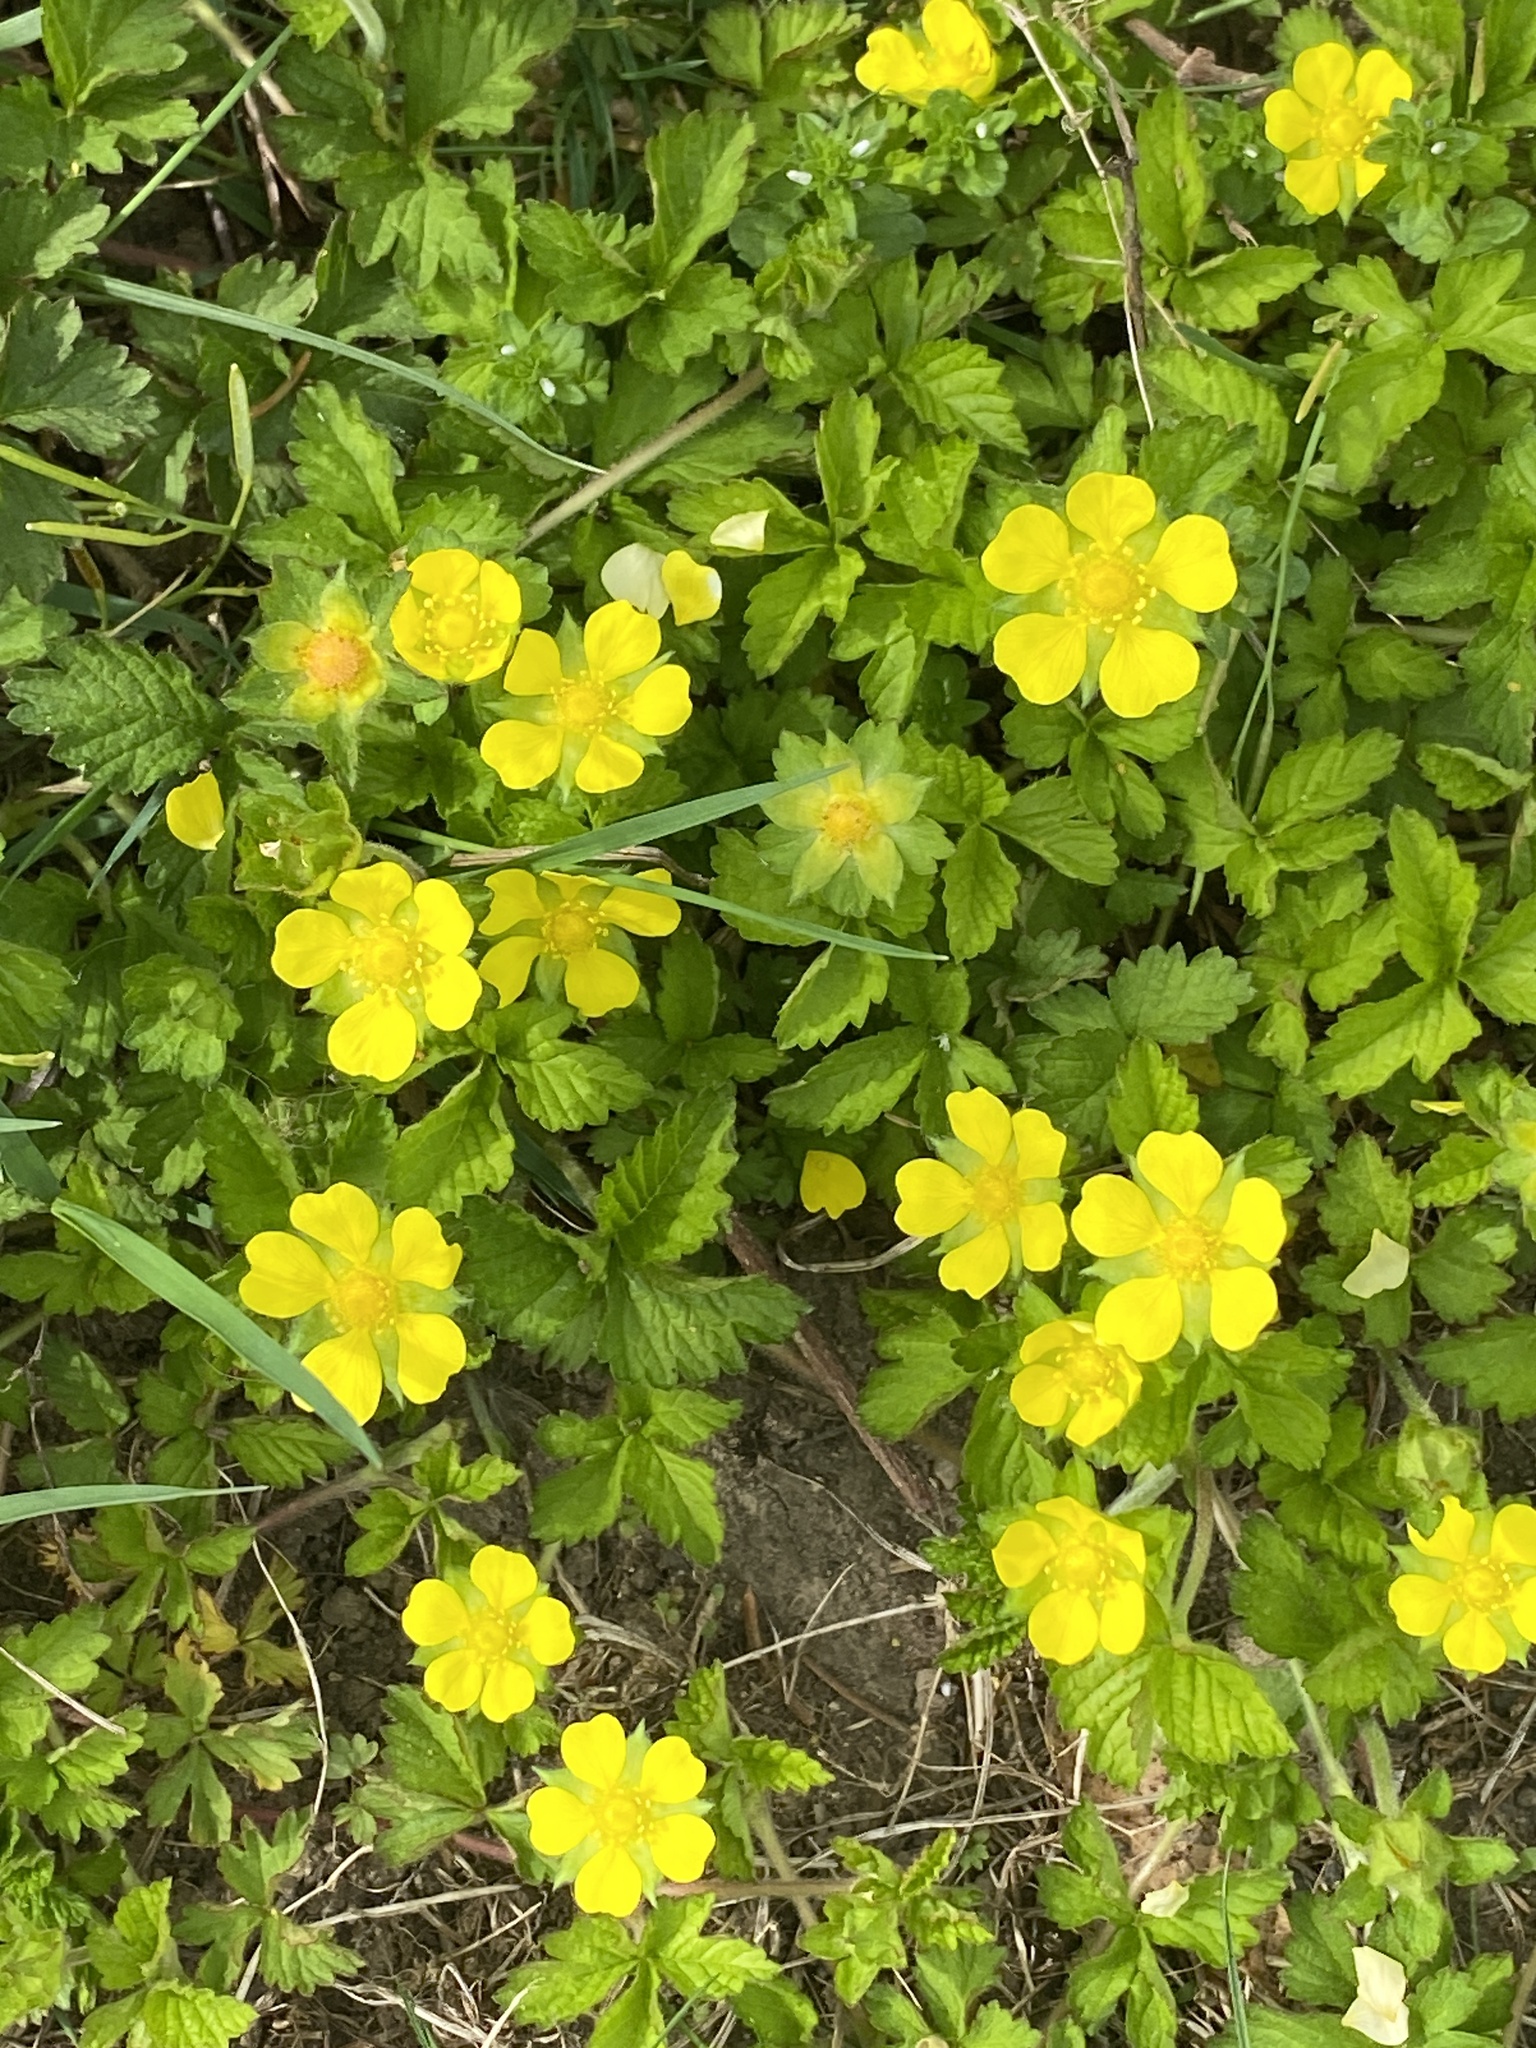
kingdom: Plantae
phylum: Tracheophyta
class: Magnoliopsida
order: Rosales
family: Rosaceae
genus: Potentilla
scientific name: Potentilla indica
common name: Yellow-flowered strawberry
